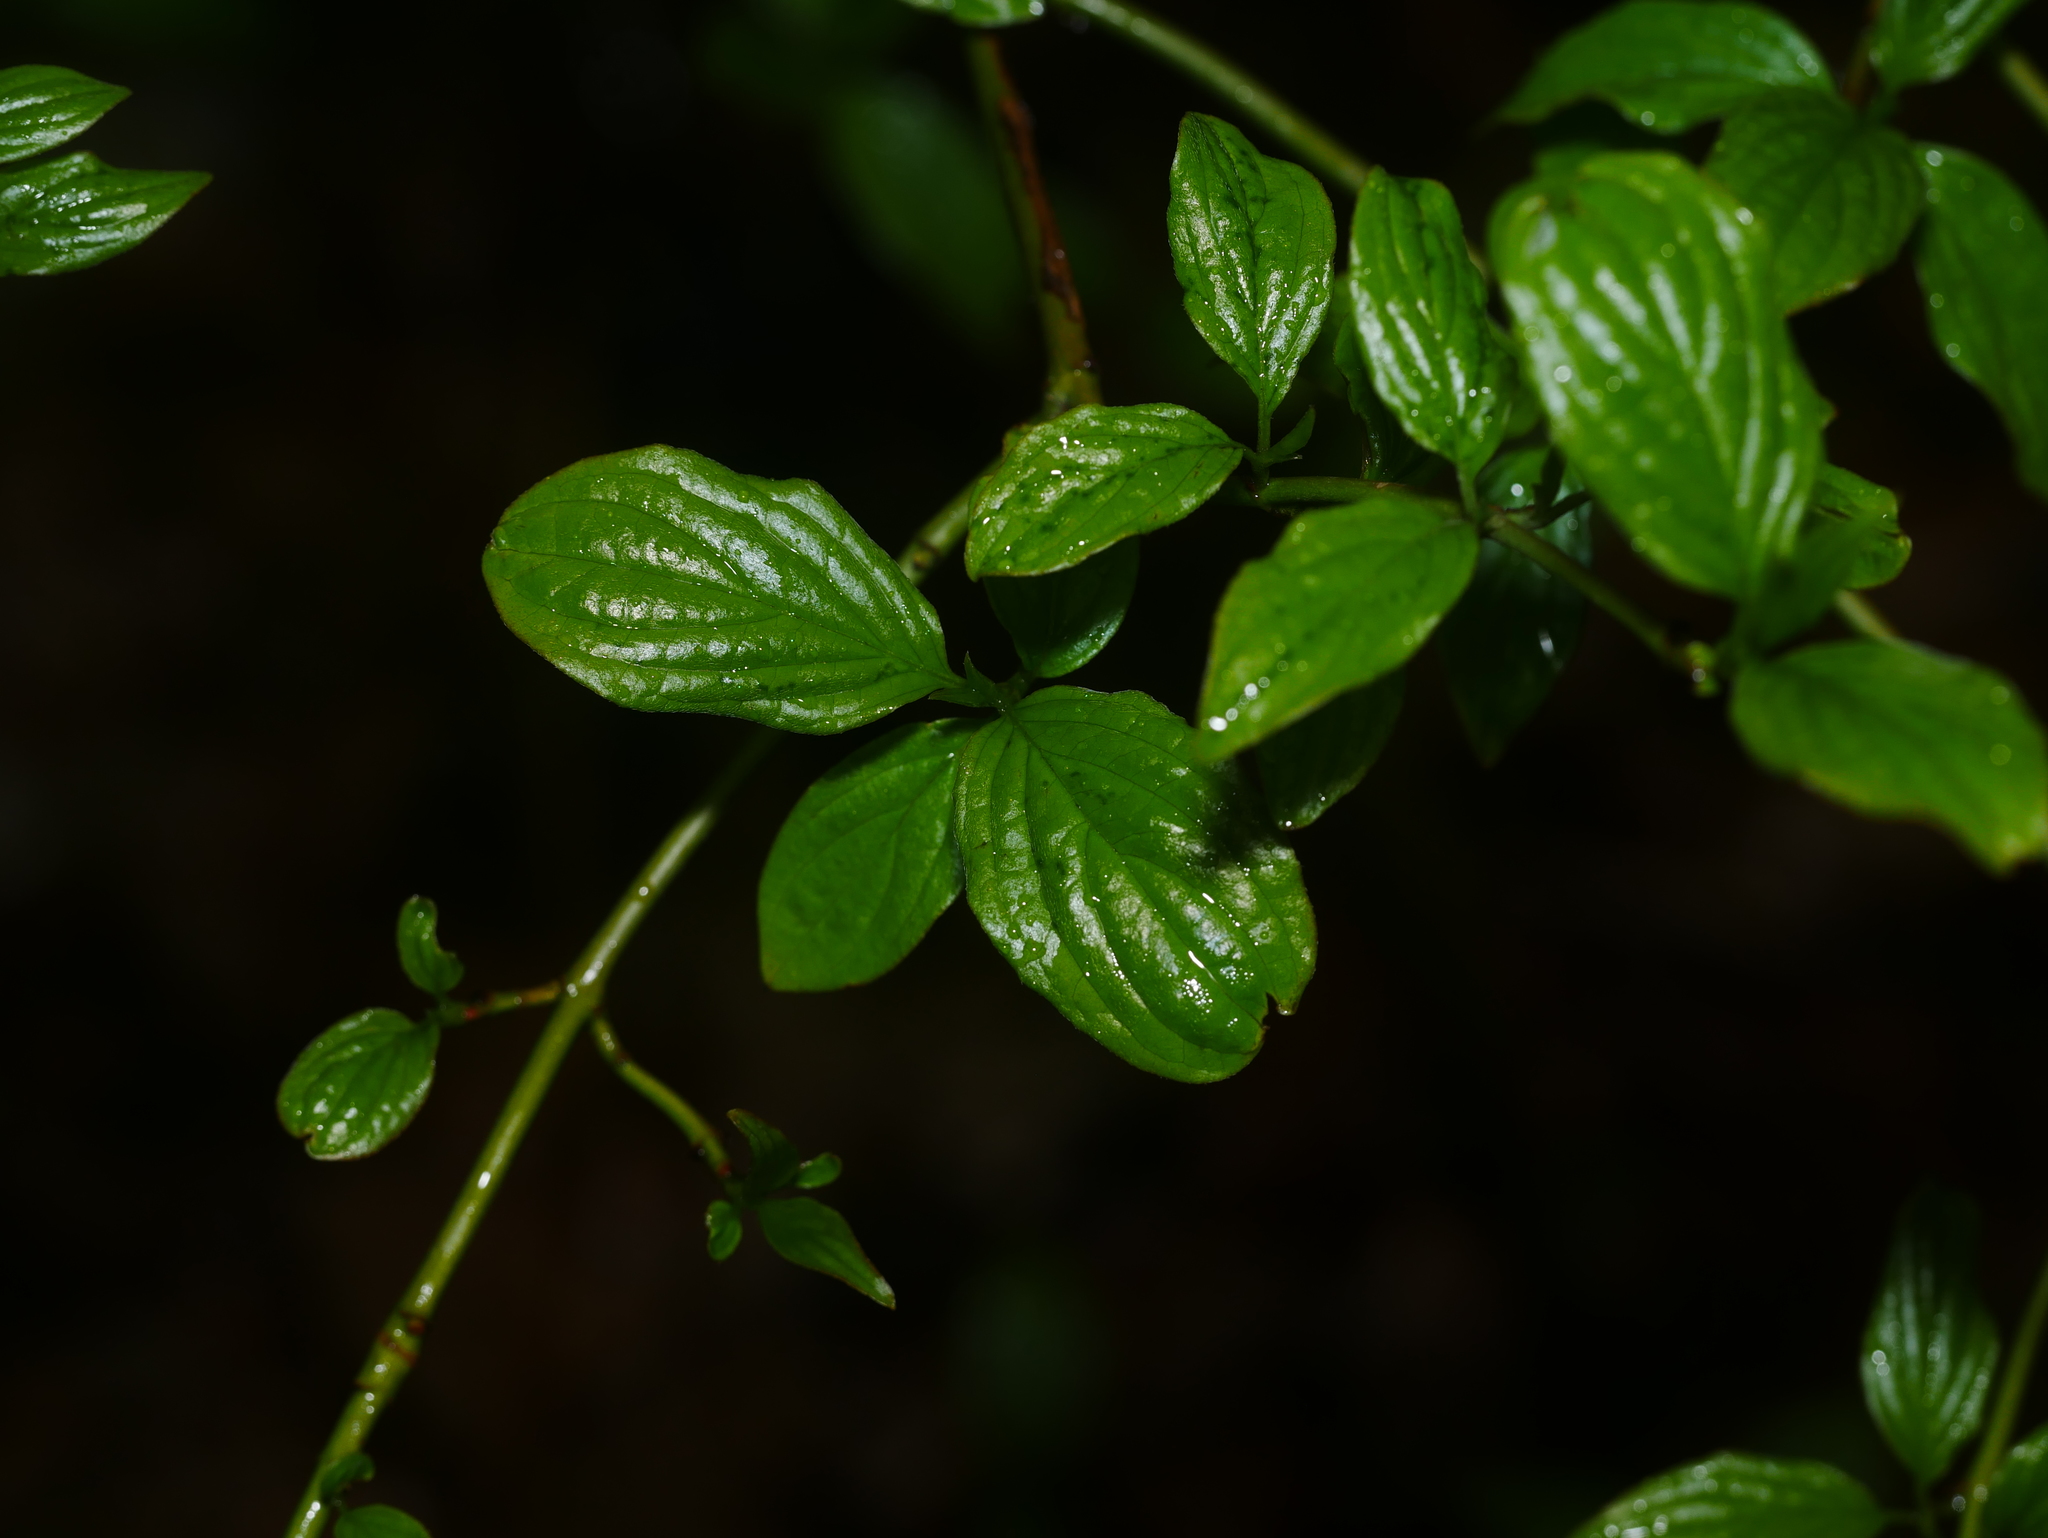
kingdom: Plantae
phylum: Tracheophyta
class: Magnoliopsida
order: Cornales
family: Cornaceae
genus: Cornus
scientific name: Cornus sanguinea
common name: Dogwood
